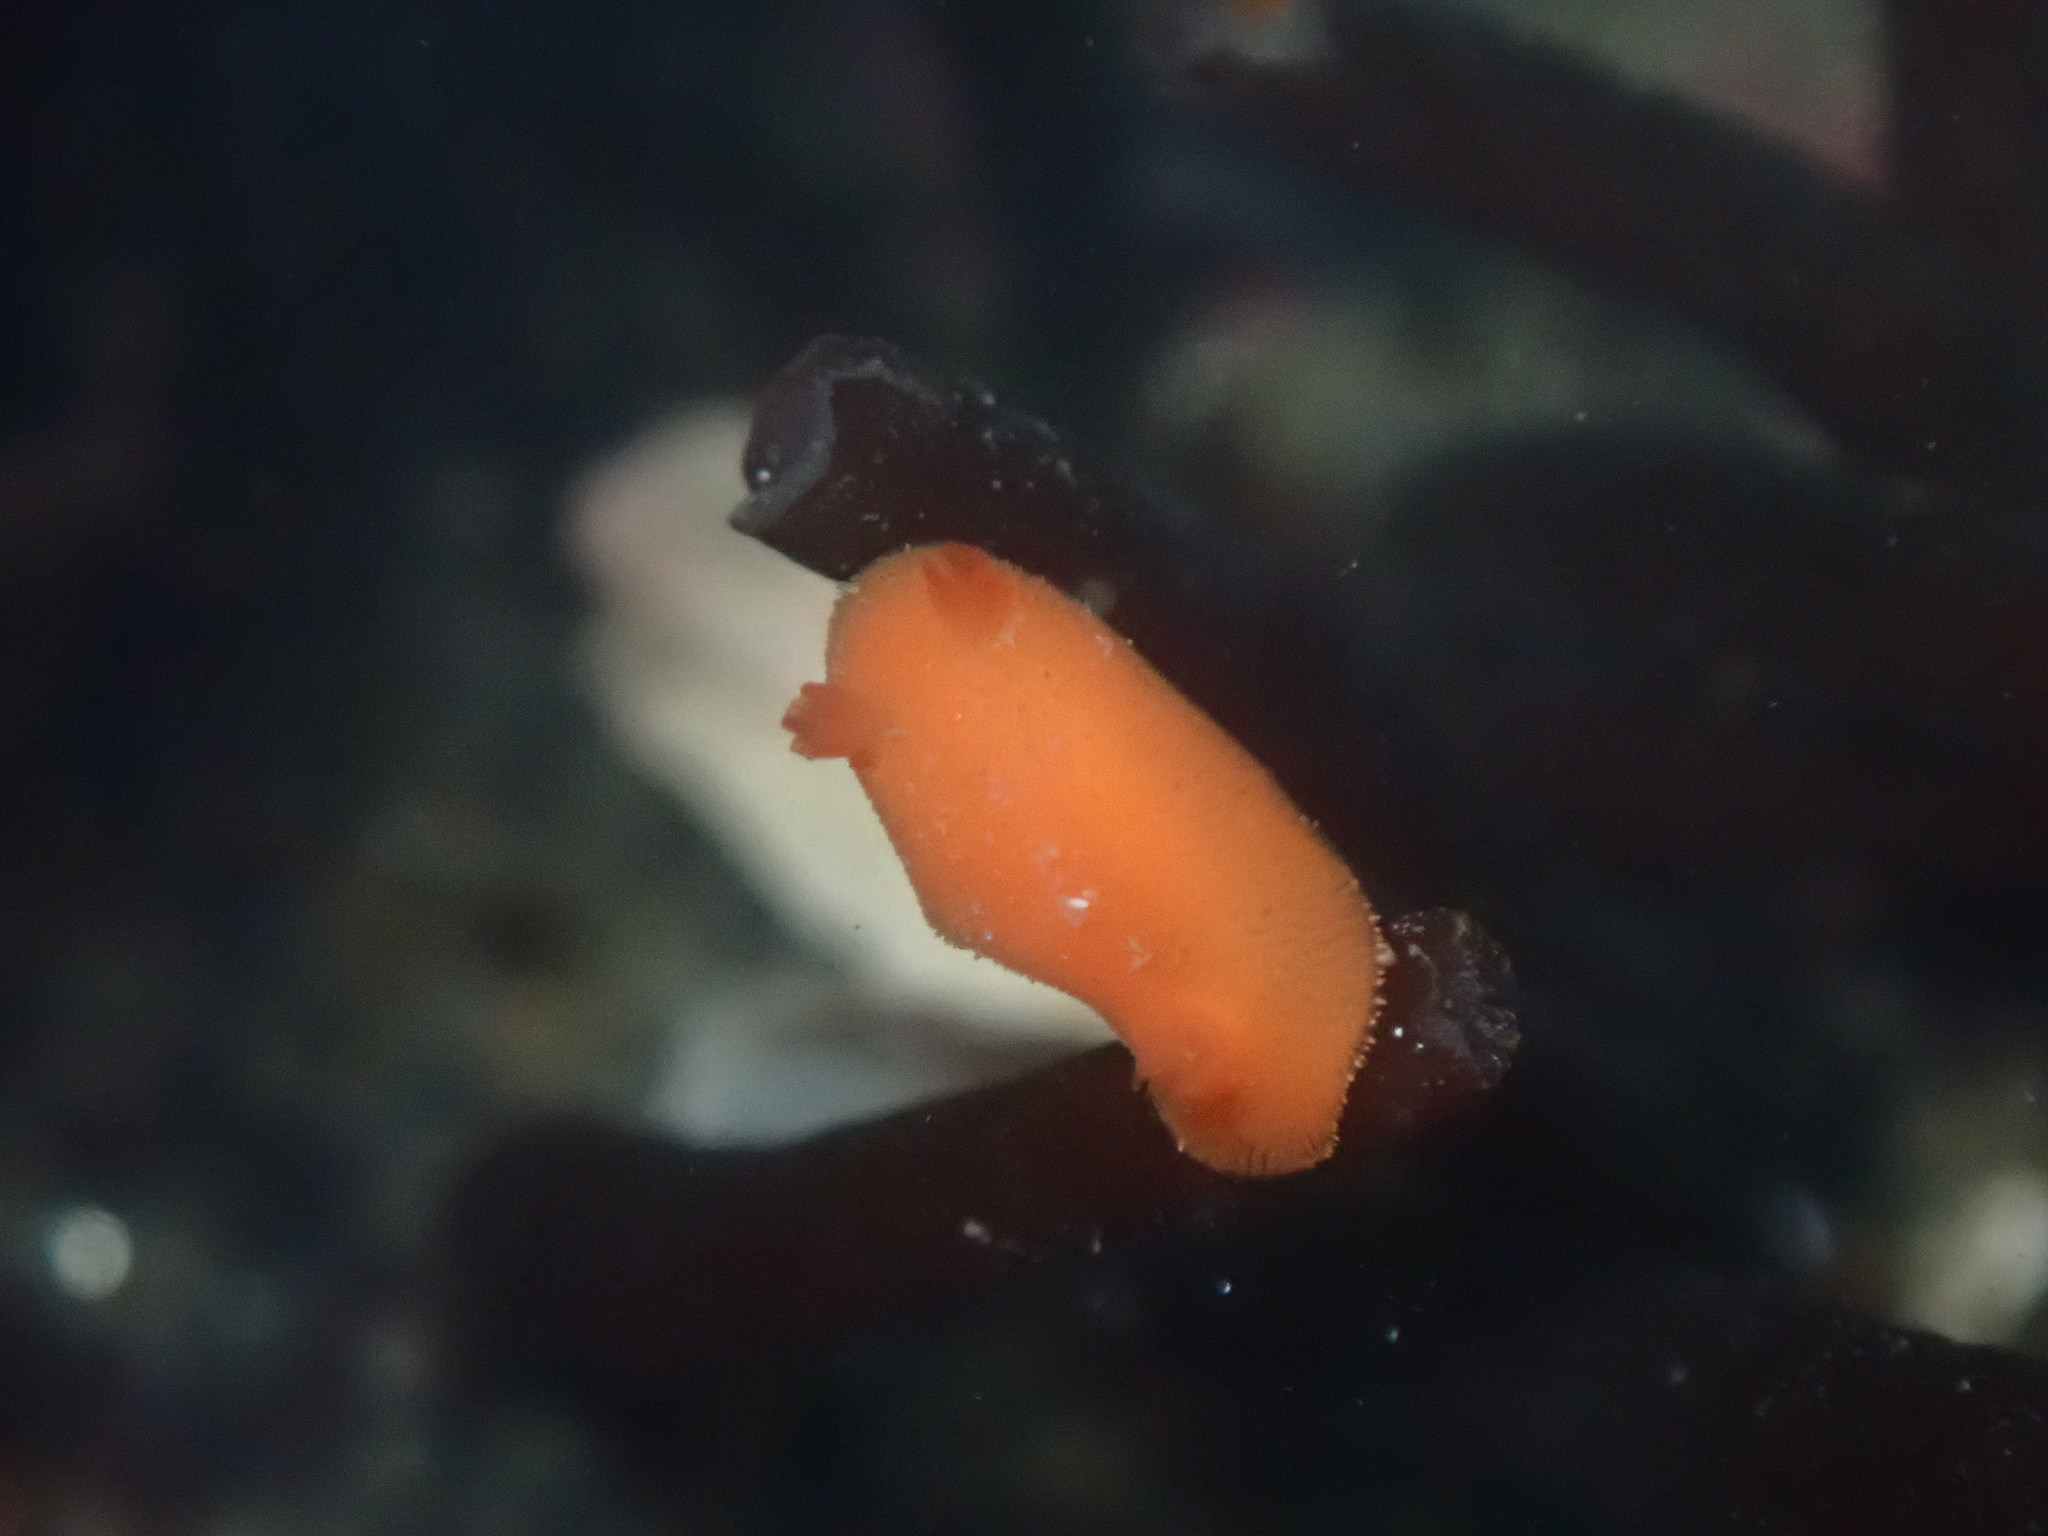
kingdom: Animalia
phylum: Mollusca
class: Gastropoda
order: Nudibranchia
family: Discodorididae
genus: Rostanga
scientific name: Rostanga pulchra
